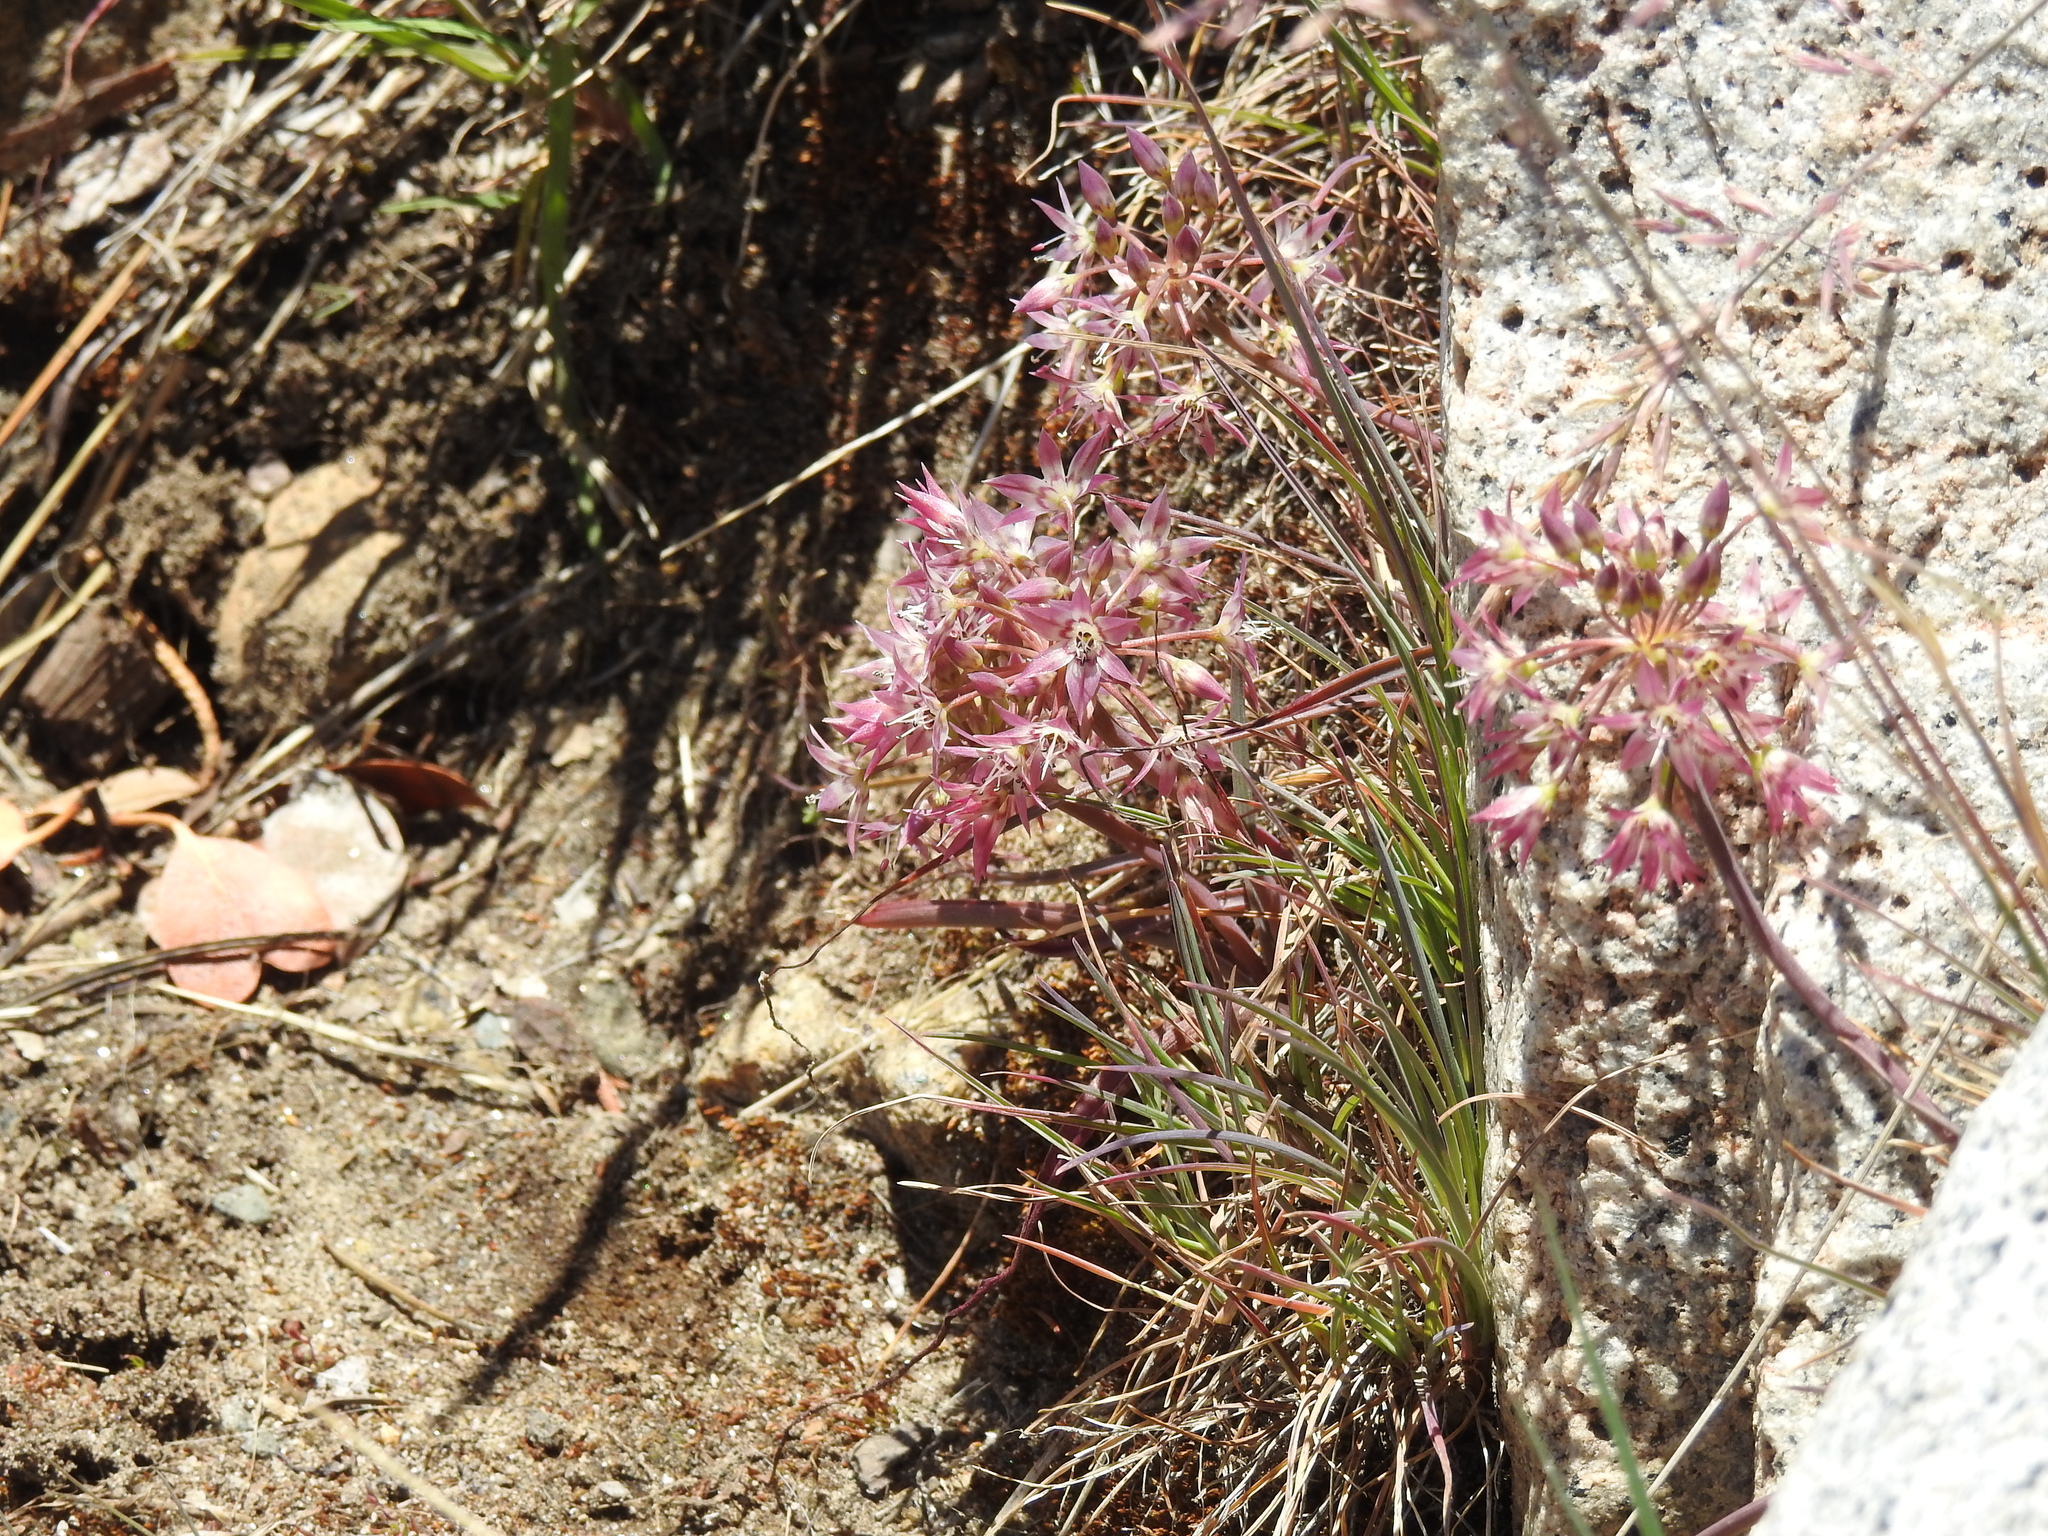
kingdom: Plantae
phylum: Tracheophyta
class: Liliopsida
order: Asparagales
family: Amaryllidaceae
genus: Allium
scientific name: Allium campanulatum
